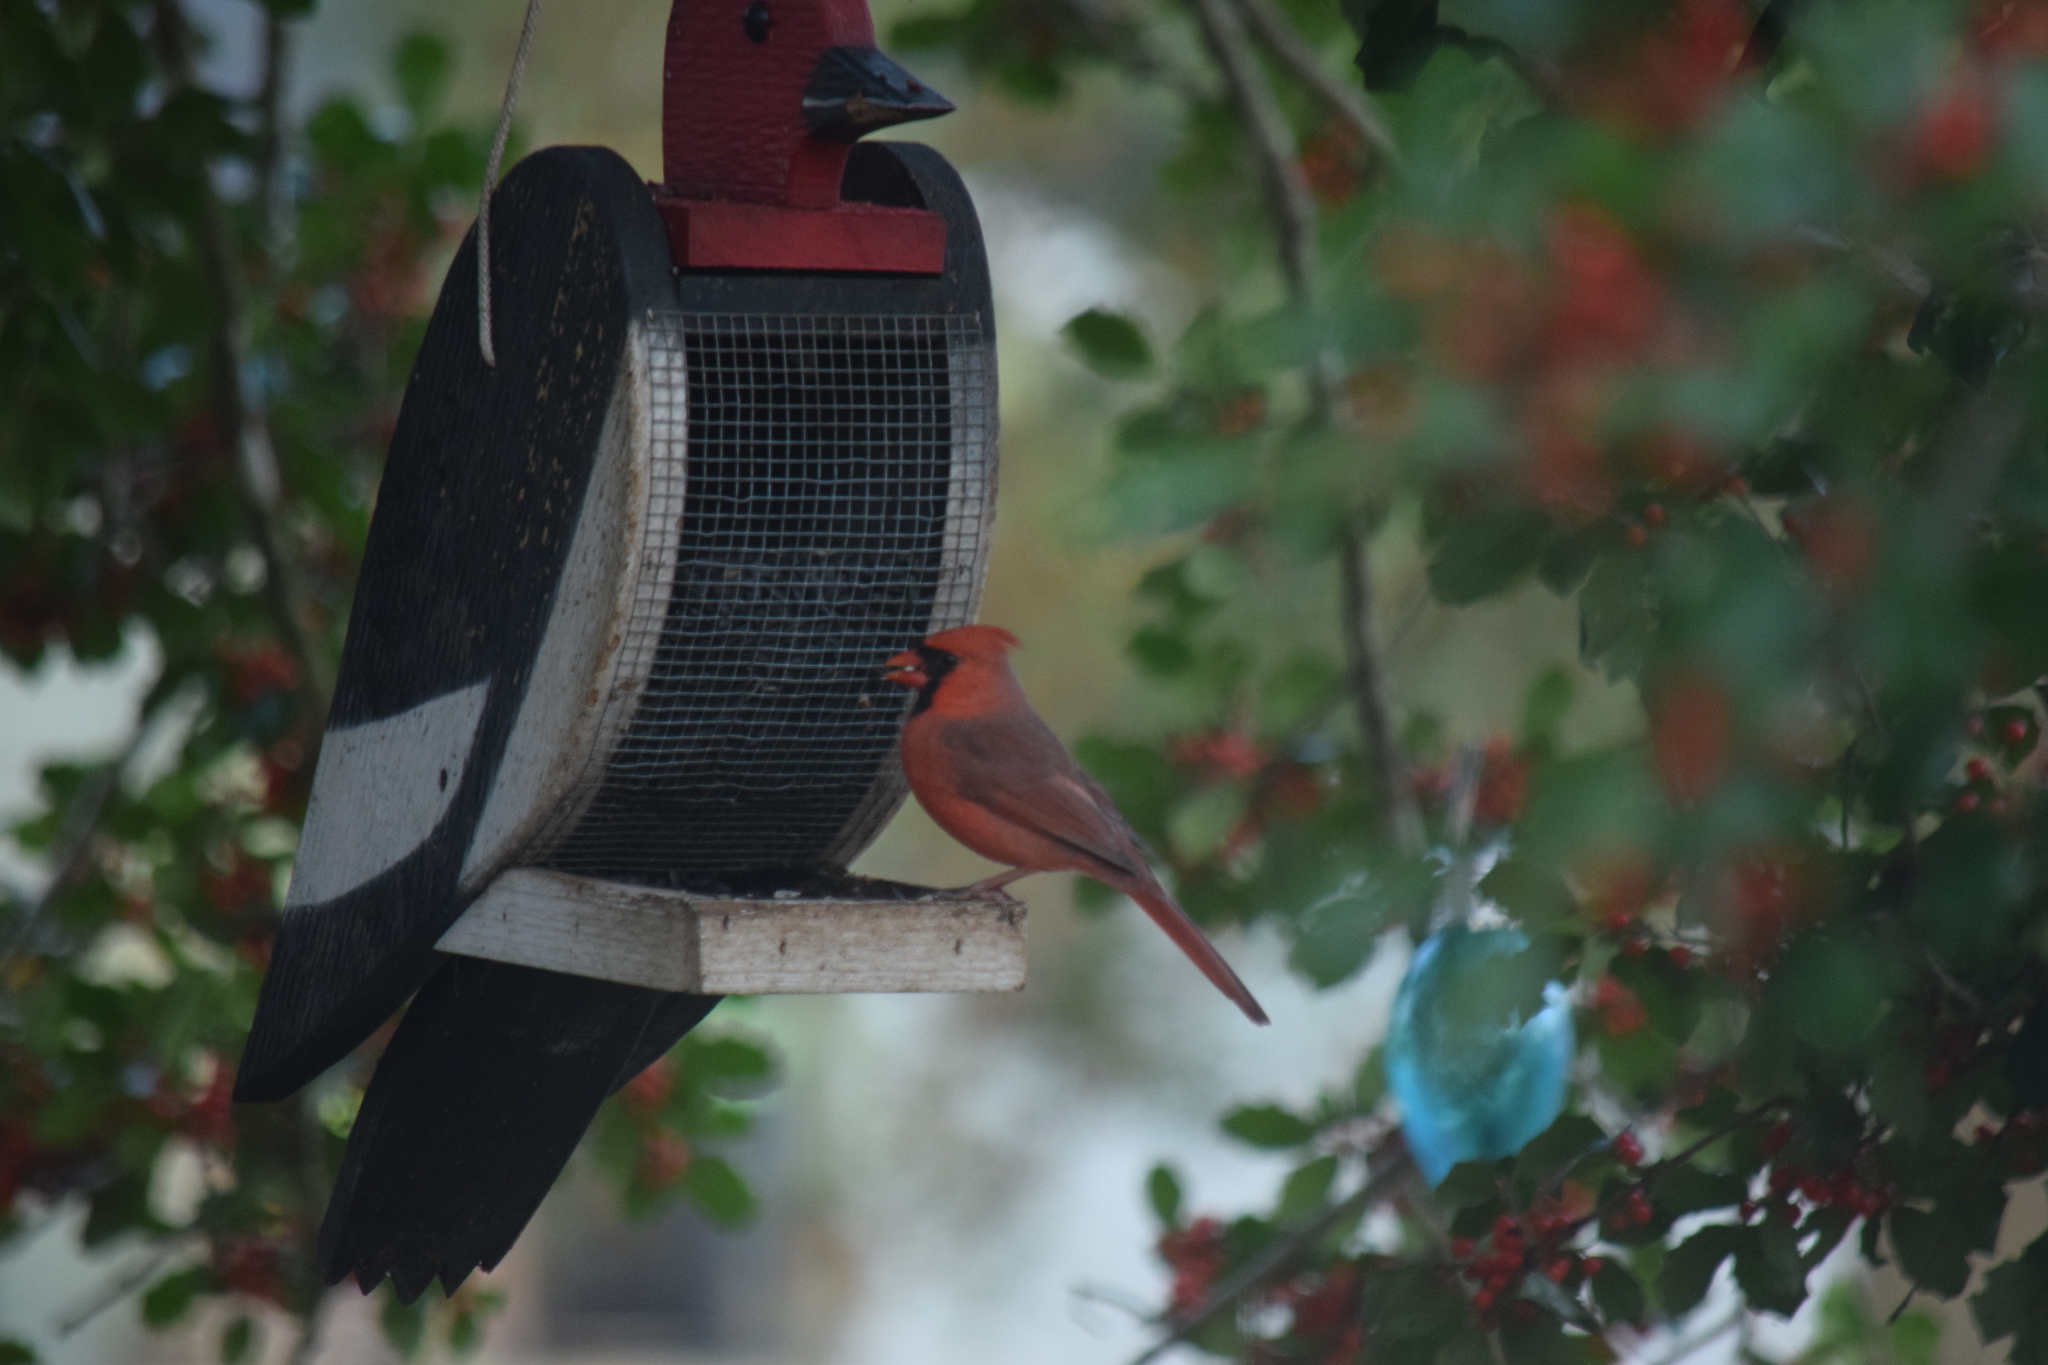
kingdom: Animalia
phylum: Chordata
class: Aves
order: Passeriformes
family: Cardinalidae
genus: Cardinalis
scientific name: Cardinalis cardinalis
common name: Northern cardinal
